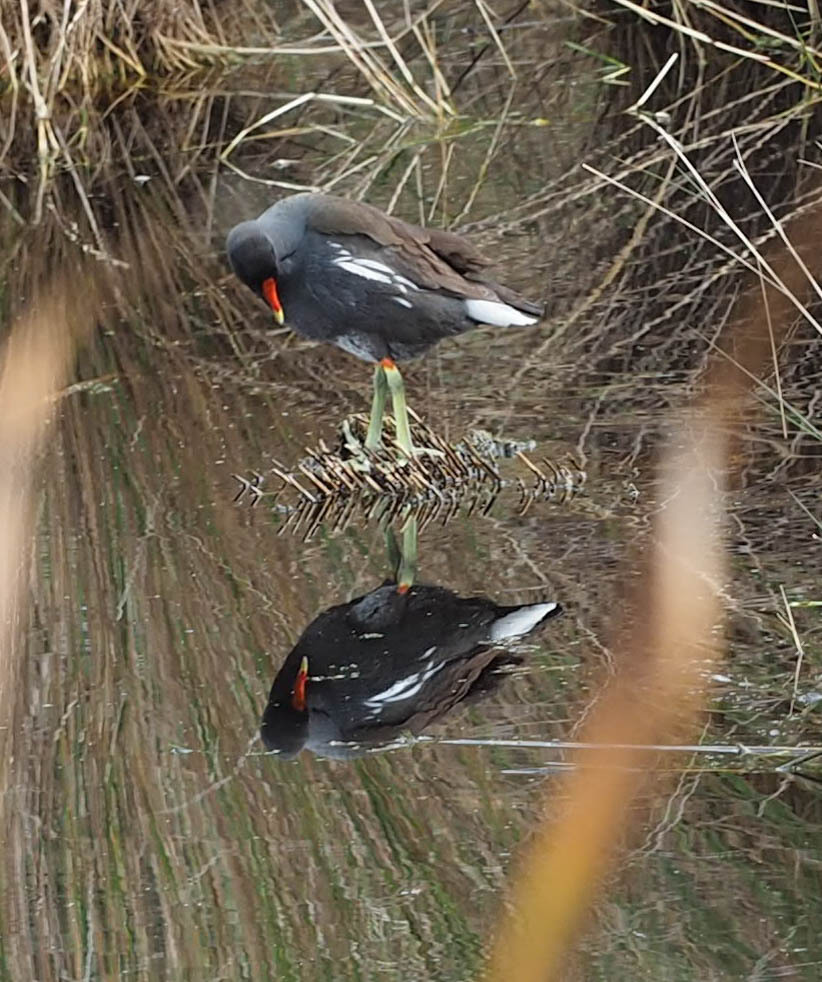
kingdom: Animalia
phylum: Chordata
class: Aves
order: Gruiformes
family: Rallidae
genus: Gallinula
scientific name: Gallinula chloropus
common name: Common moorhen
